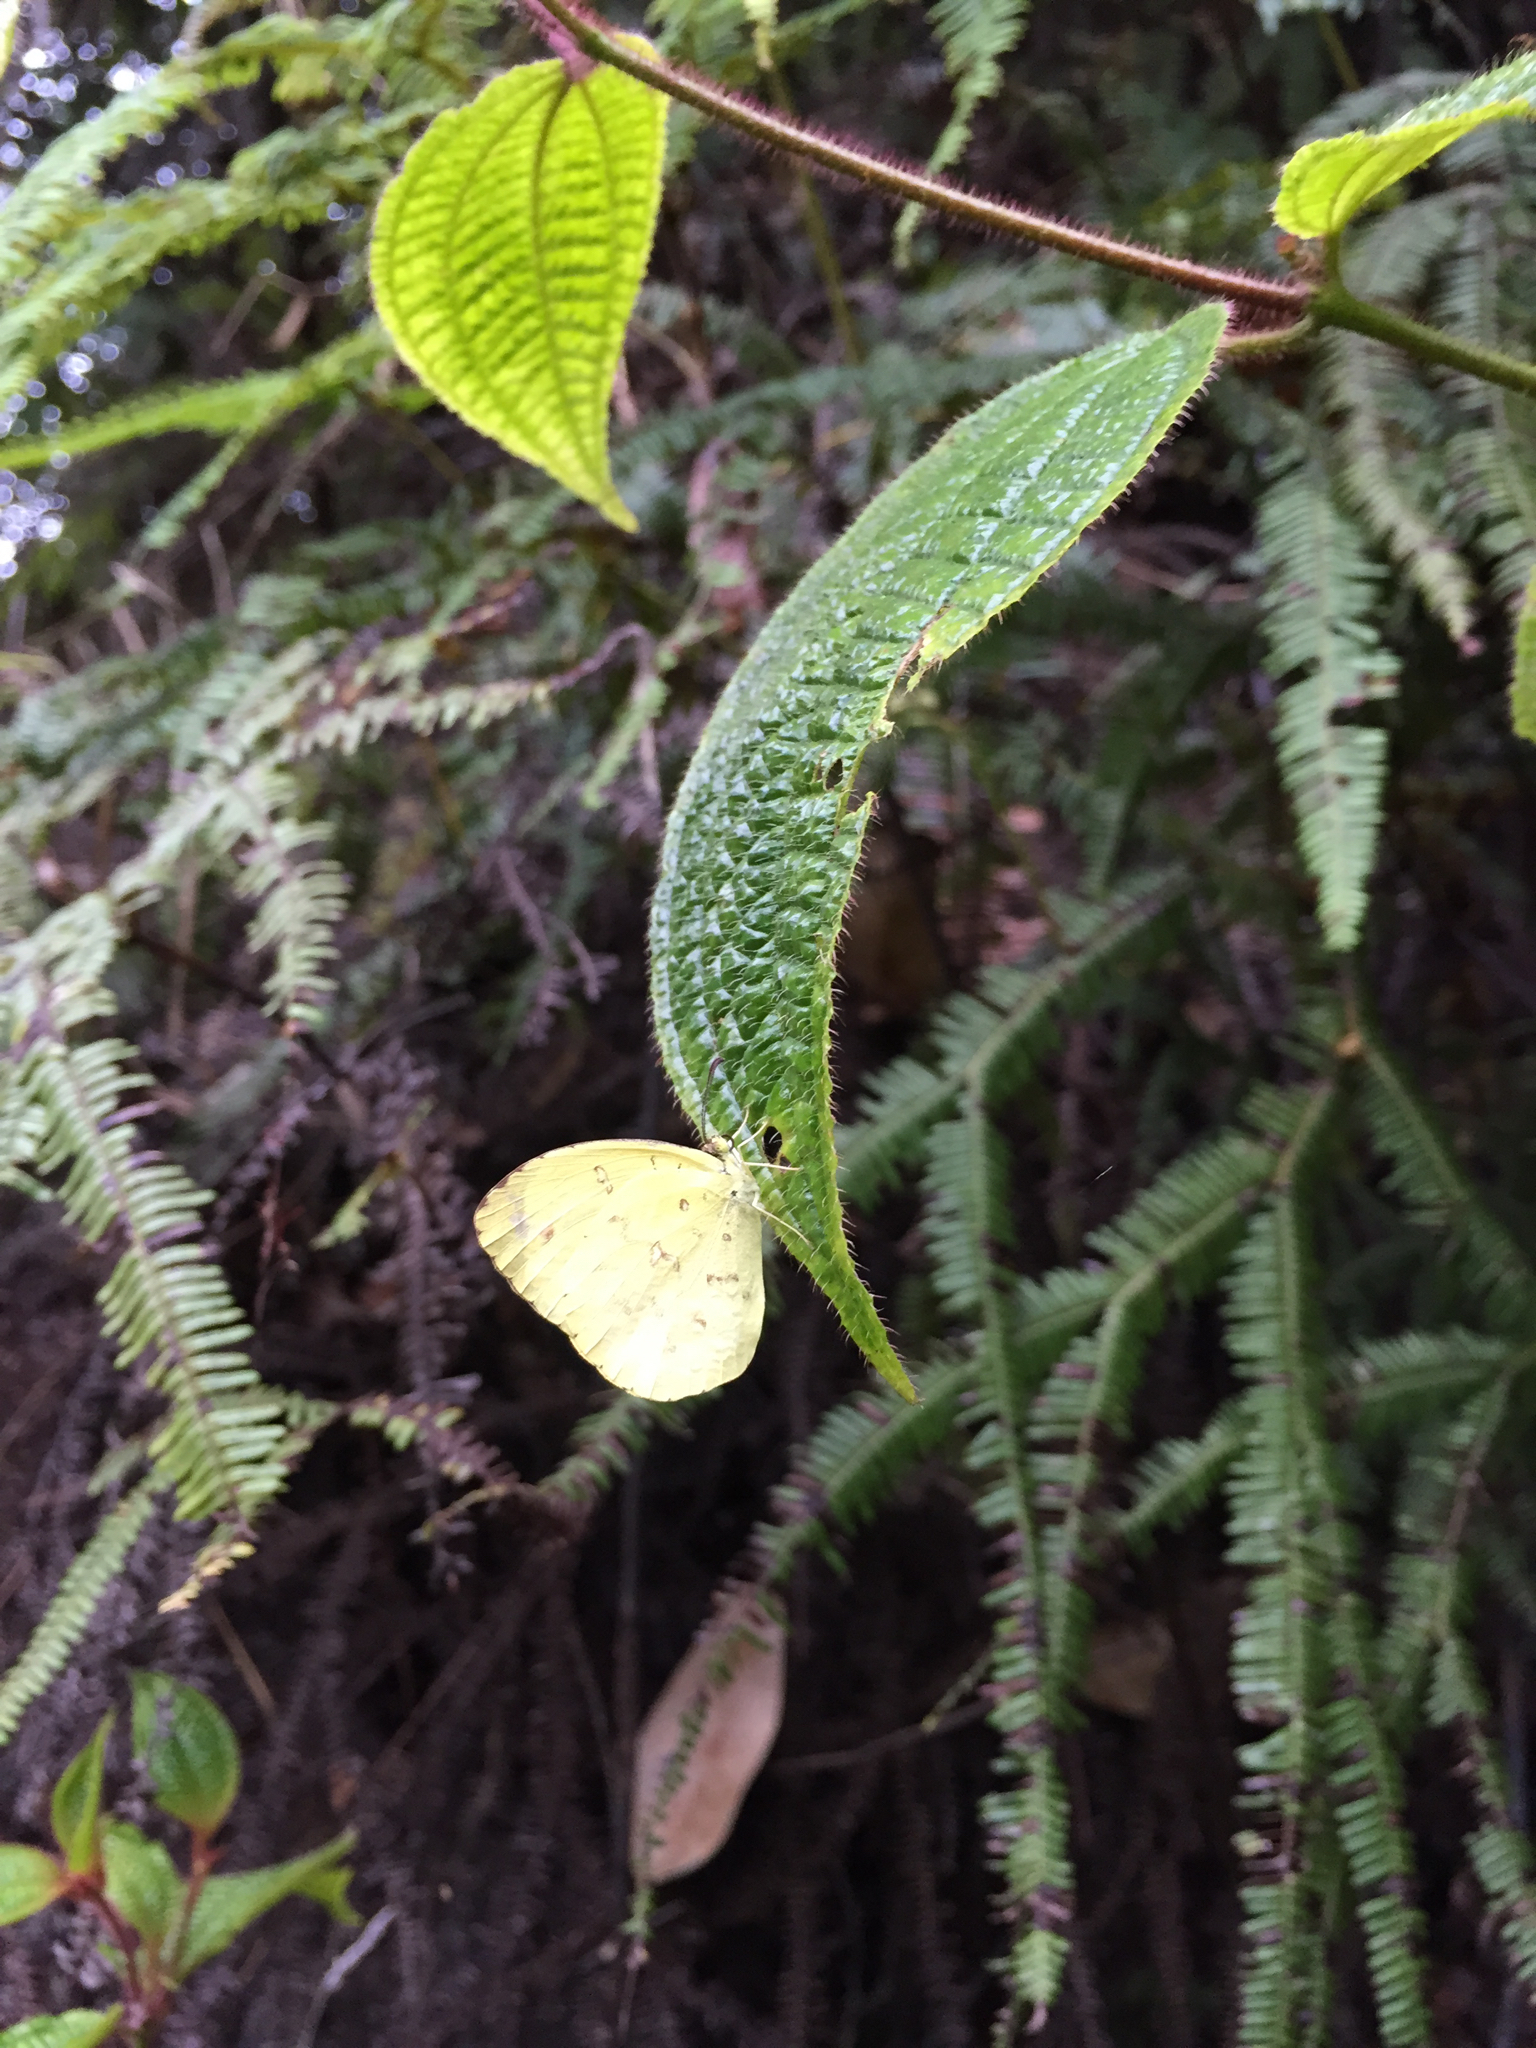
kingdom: Animalia
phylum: Arthropoda
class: Insecta
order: Lepidoptera
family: Pieridae
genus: Eurema
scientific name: Eurema floricola
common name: Malagasy grass yellow
